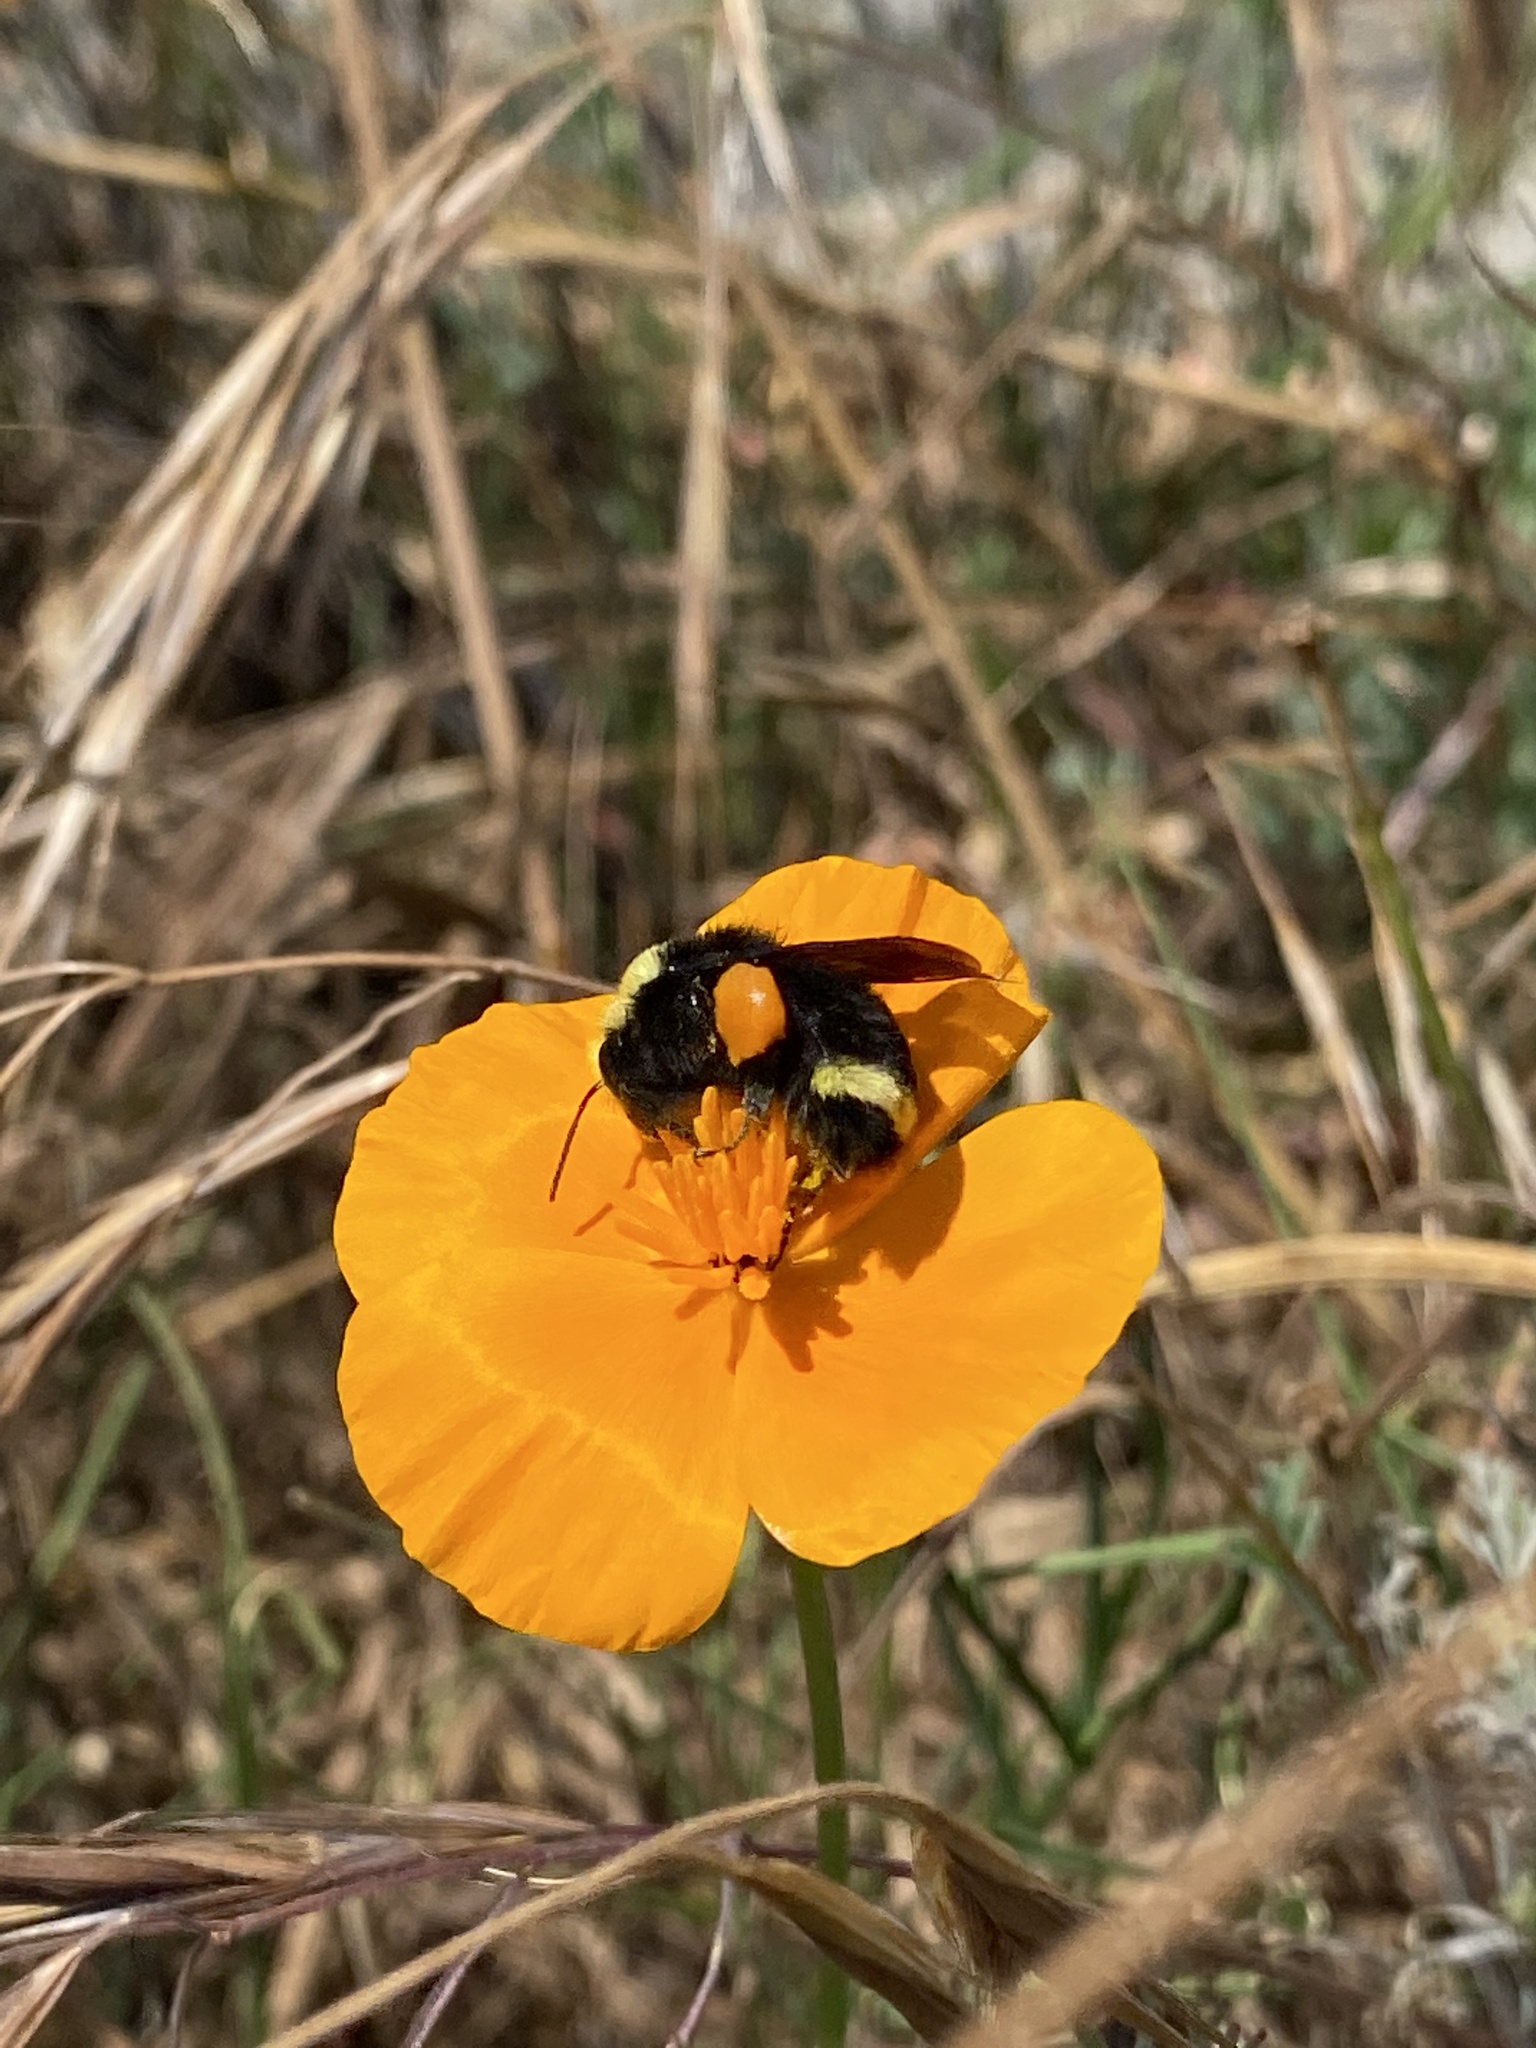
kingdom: Animalia
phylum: Arthropoda
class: Insecta
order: Hymenoptera
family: Apidae
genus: Bombus
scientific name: Bombus vosnesenskii
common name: Vosnesensky bumble bee
